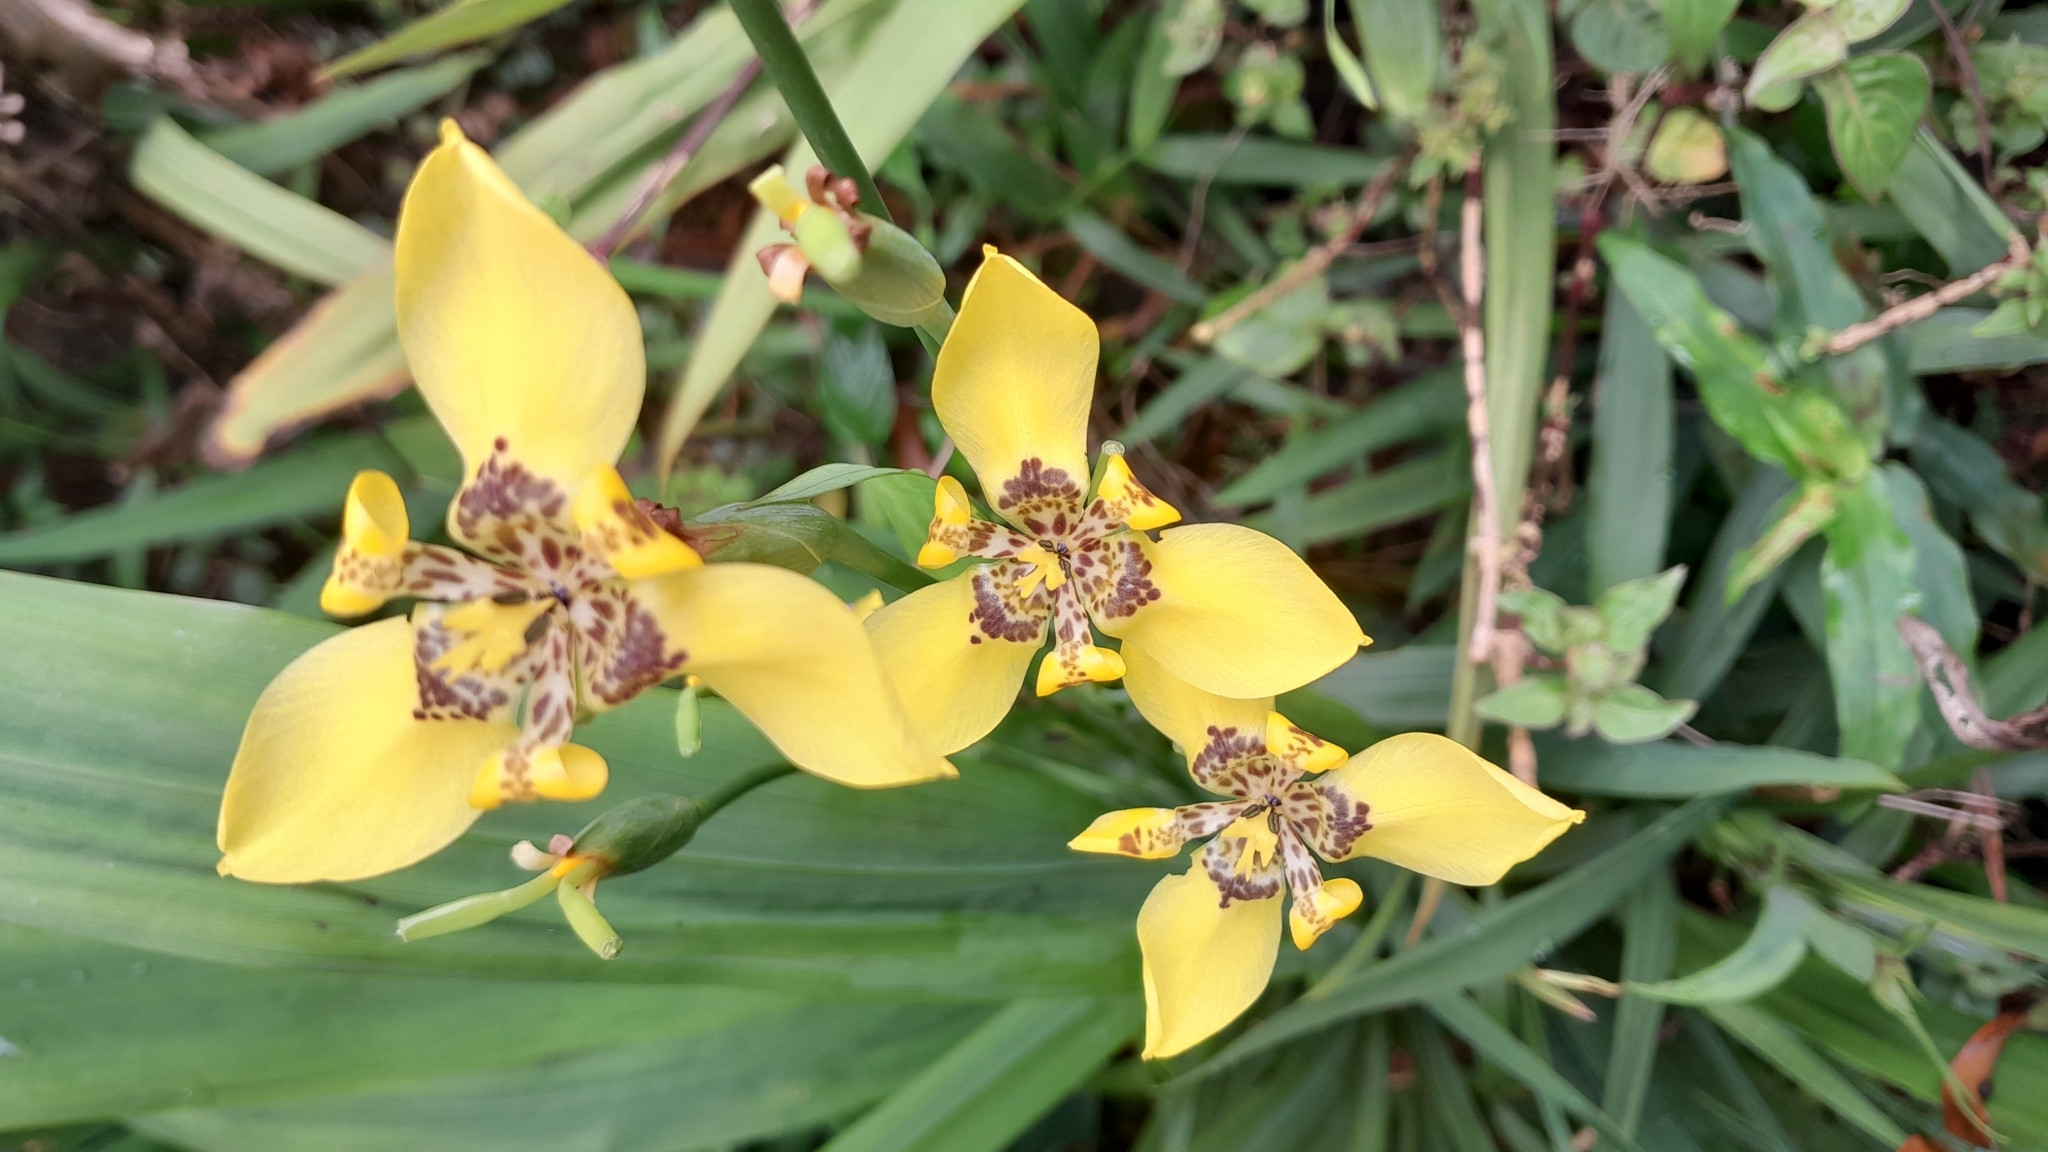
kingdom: Plantae
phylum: Tracheophyta
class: Liliopsida
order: Asparagales
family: Iridaceae
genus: Trimezia
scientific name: Trimezia steyermarkii
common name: Trimezia
